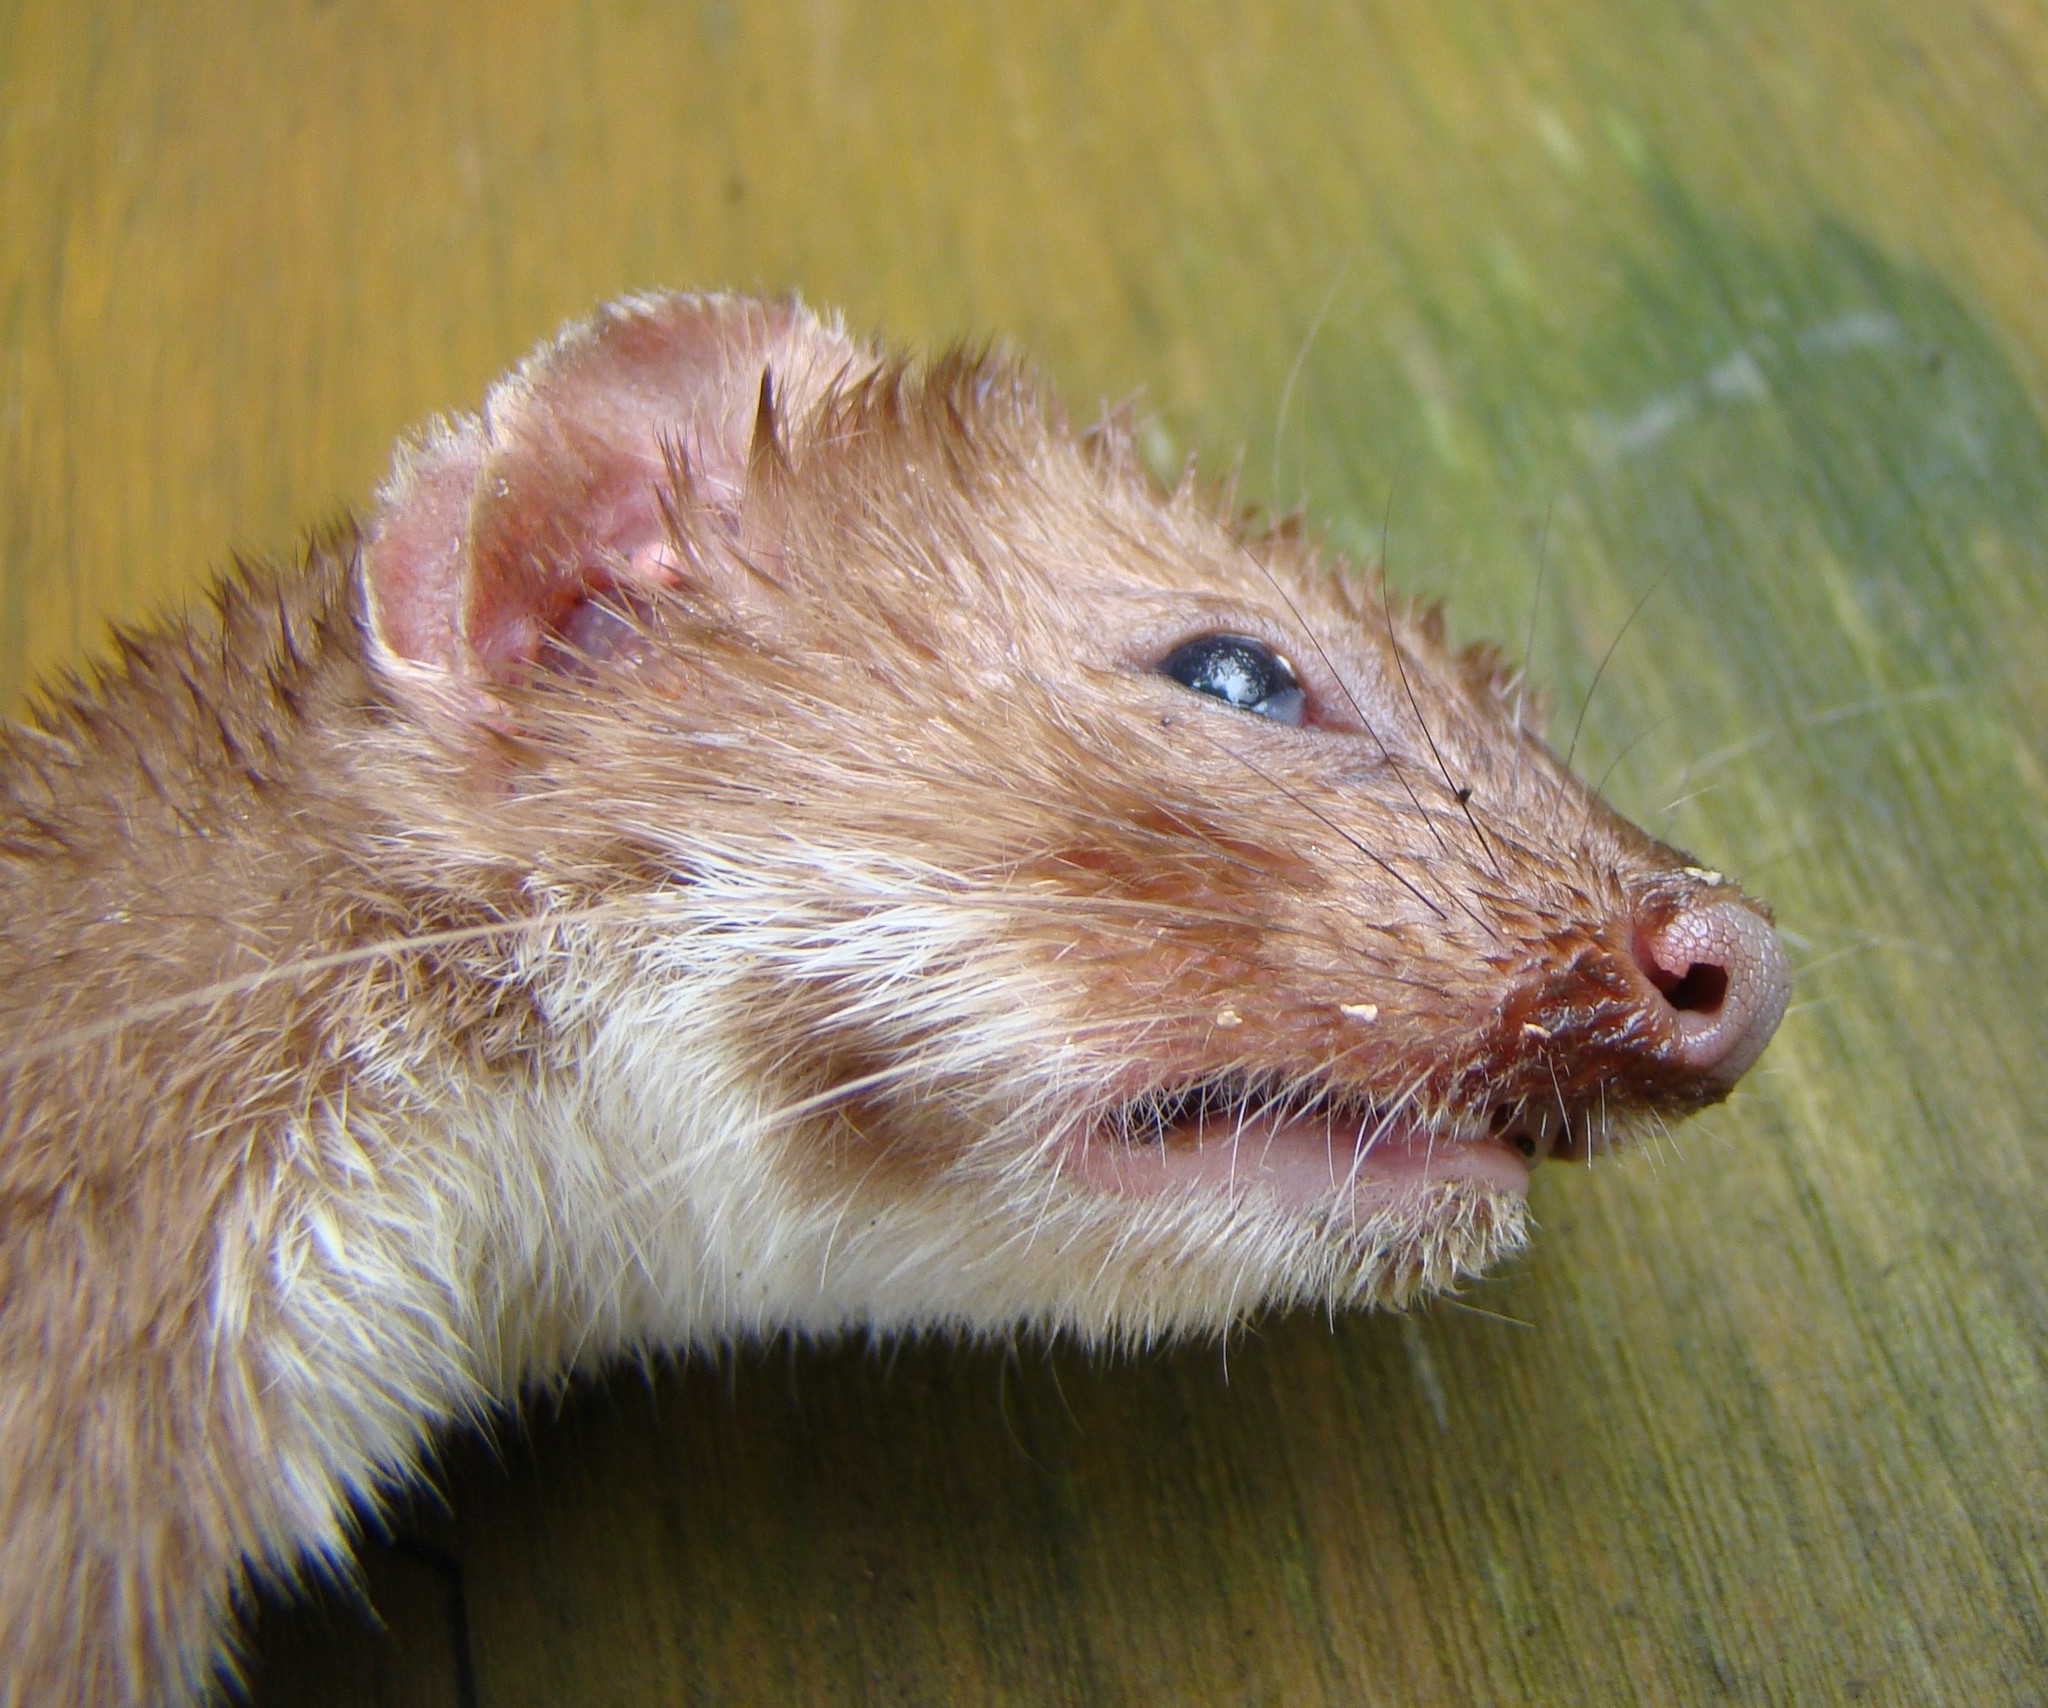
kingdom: Animalia
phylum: Chordata
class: Mammalia
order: Carnivora
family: Mustelidae
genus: Mustela
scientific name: Mustela nivalis
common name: Least weasel
